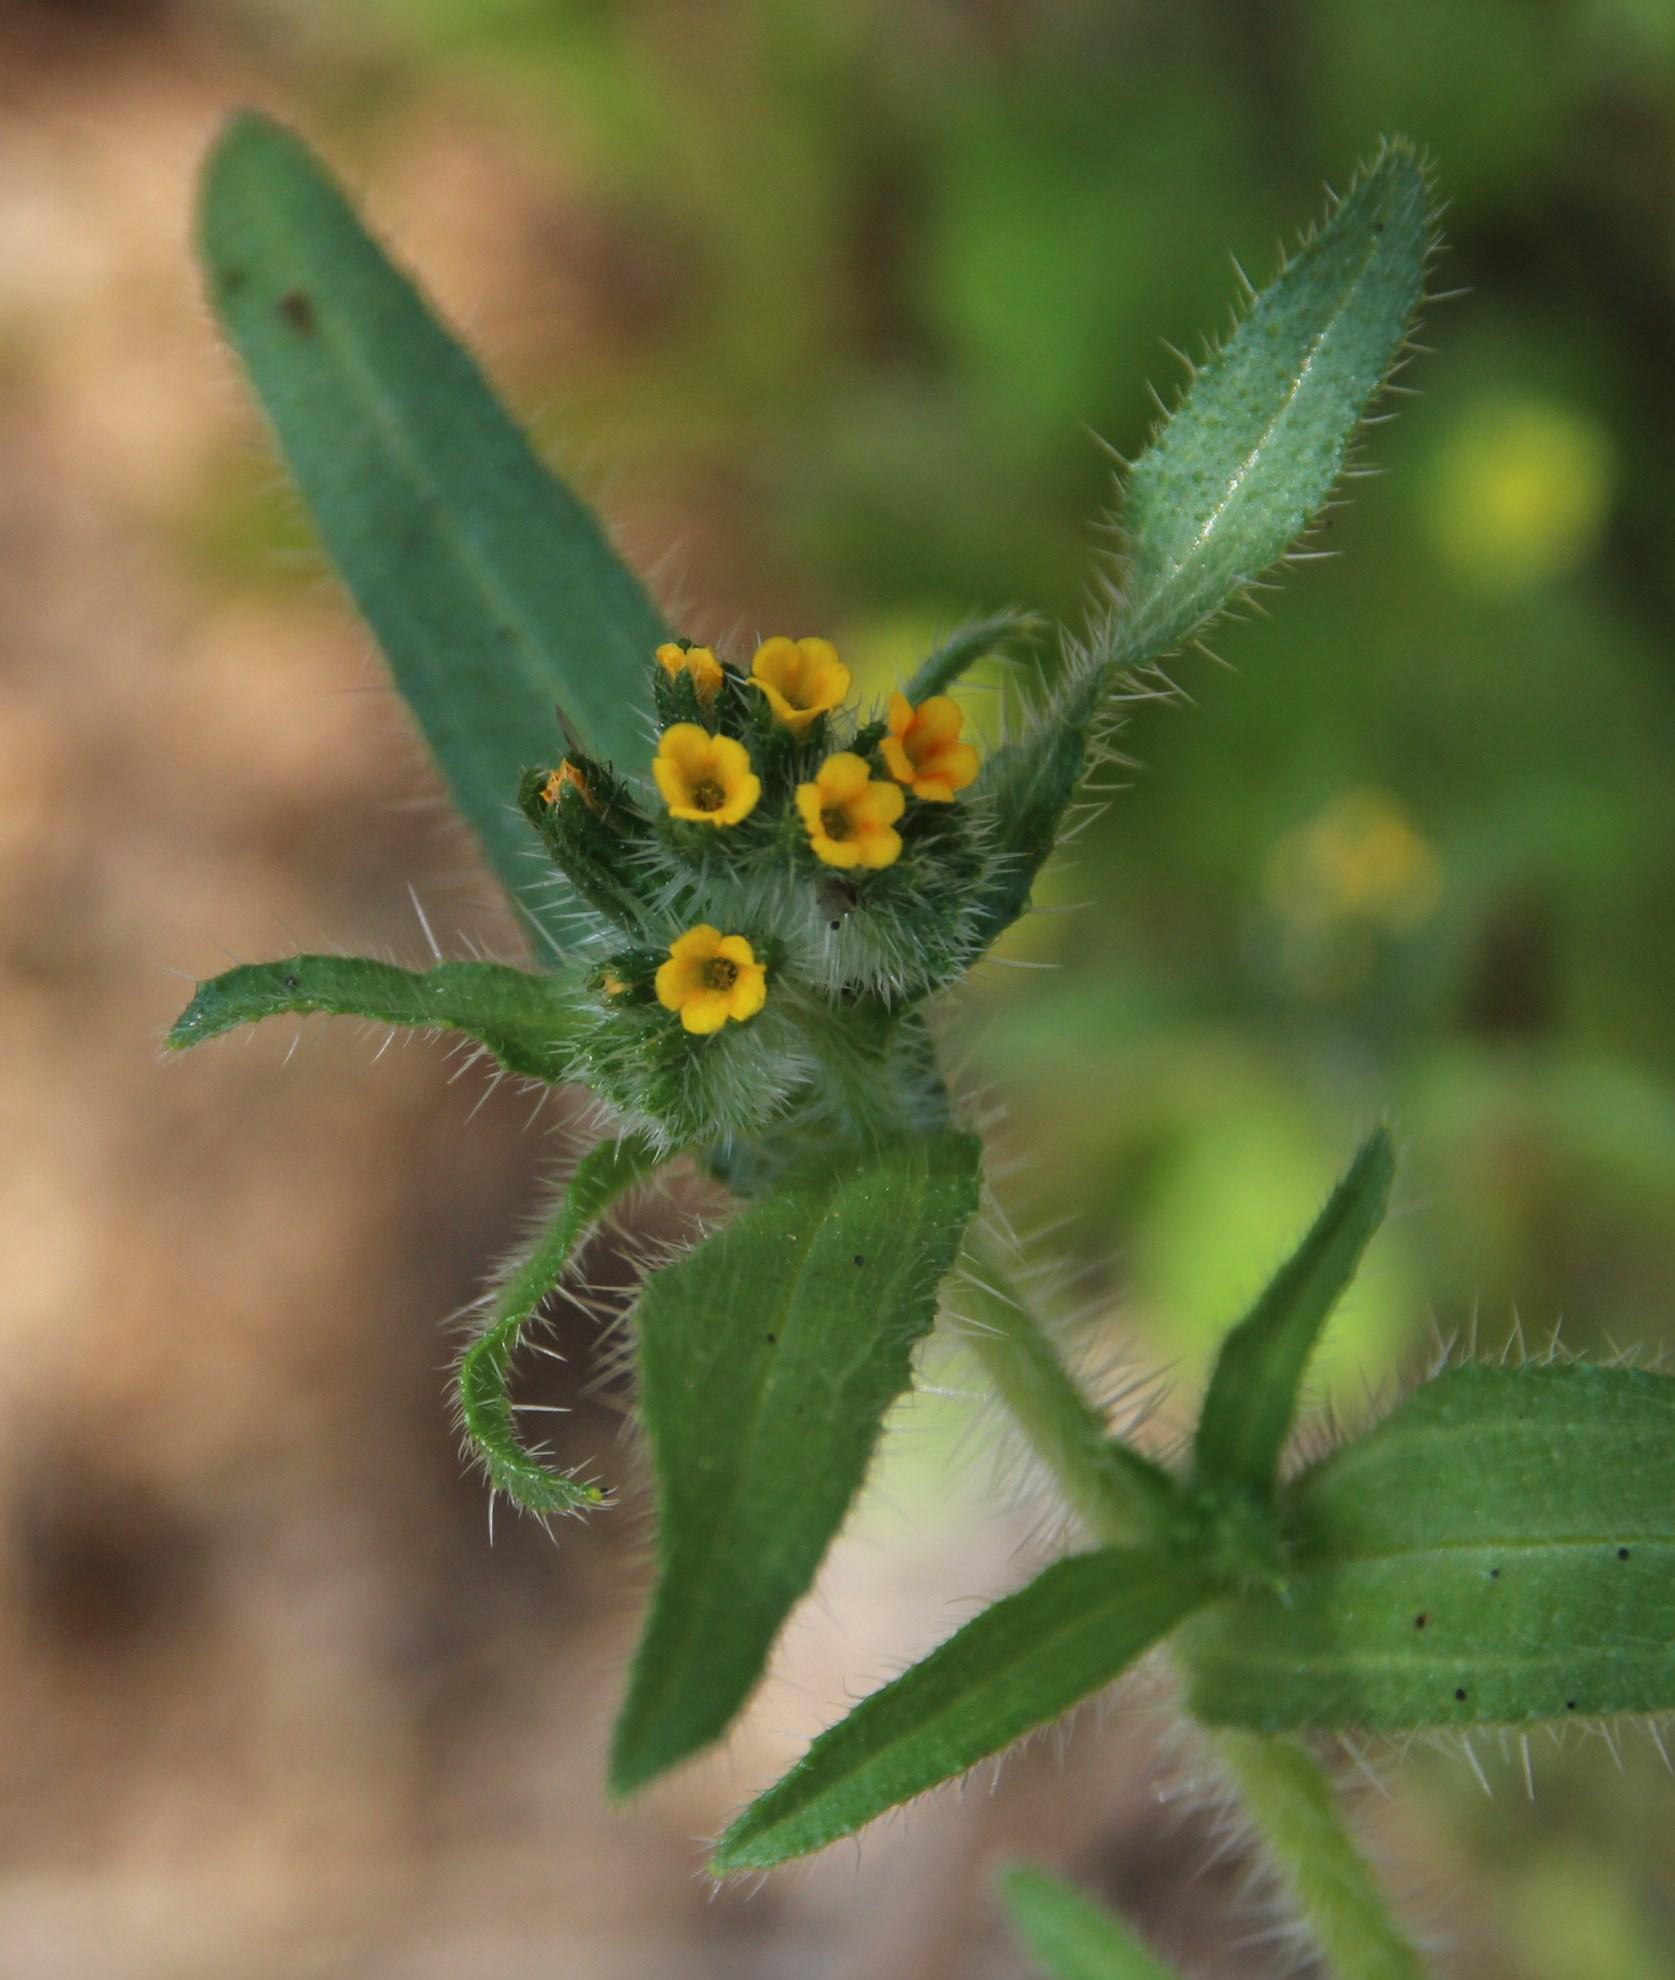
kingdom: Plantae
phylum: Tracheophyta
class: Magnoliopsida
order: Boraginales
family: Boraginaceae
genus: Amsinckia
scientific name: Amsinckia calycina
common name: Hairy fiddleneck
